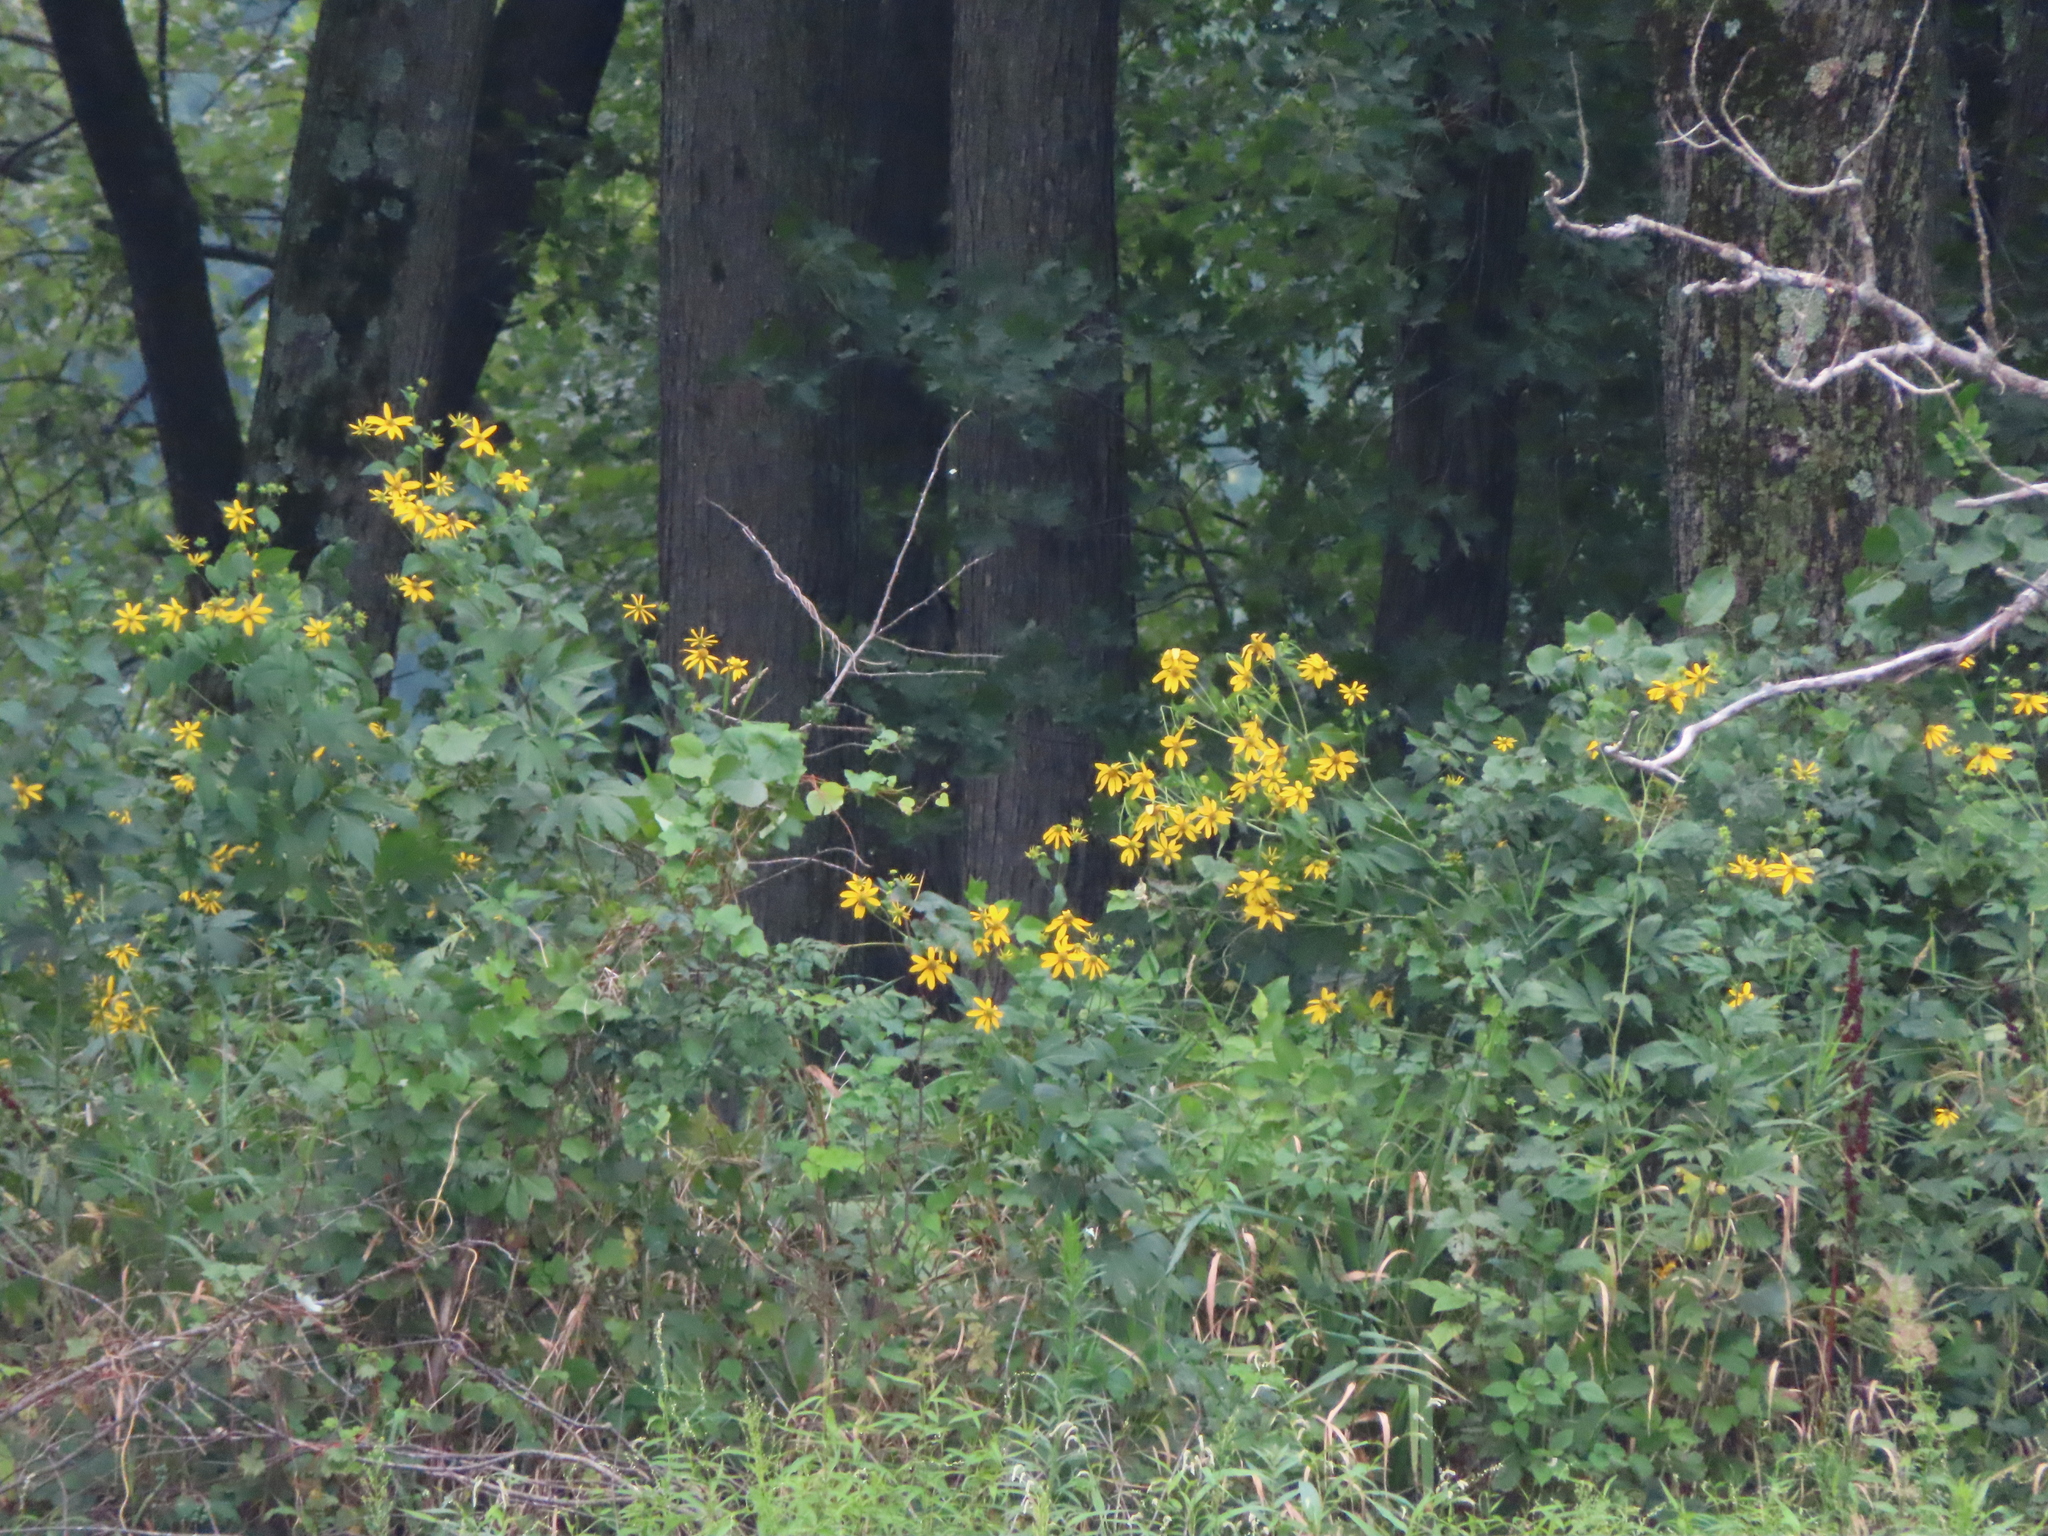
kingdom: Plantae
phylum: Tracheophyta
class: Magnoliopsida
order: Asterales
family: Asteraceae
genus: Rudbeckia
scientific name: Rudbeckia laciniata
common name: Coneflower
